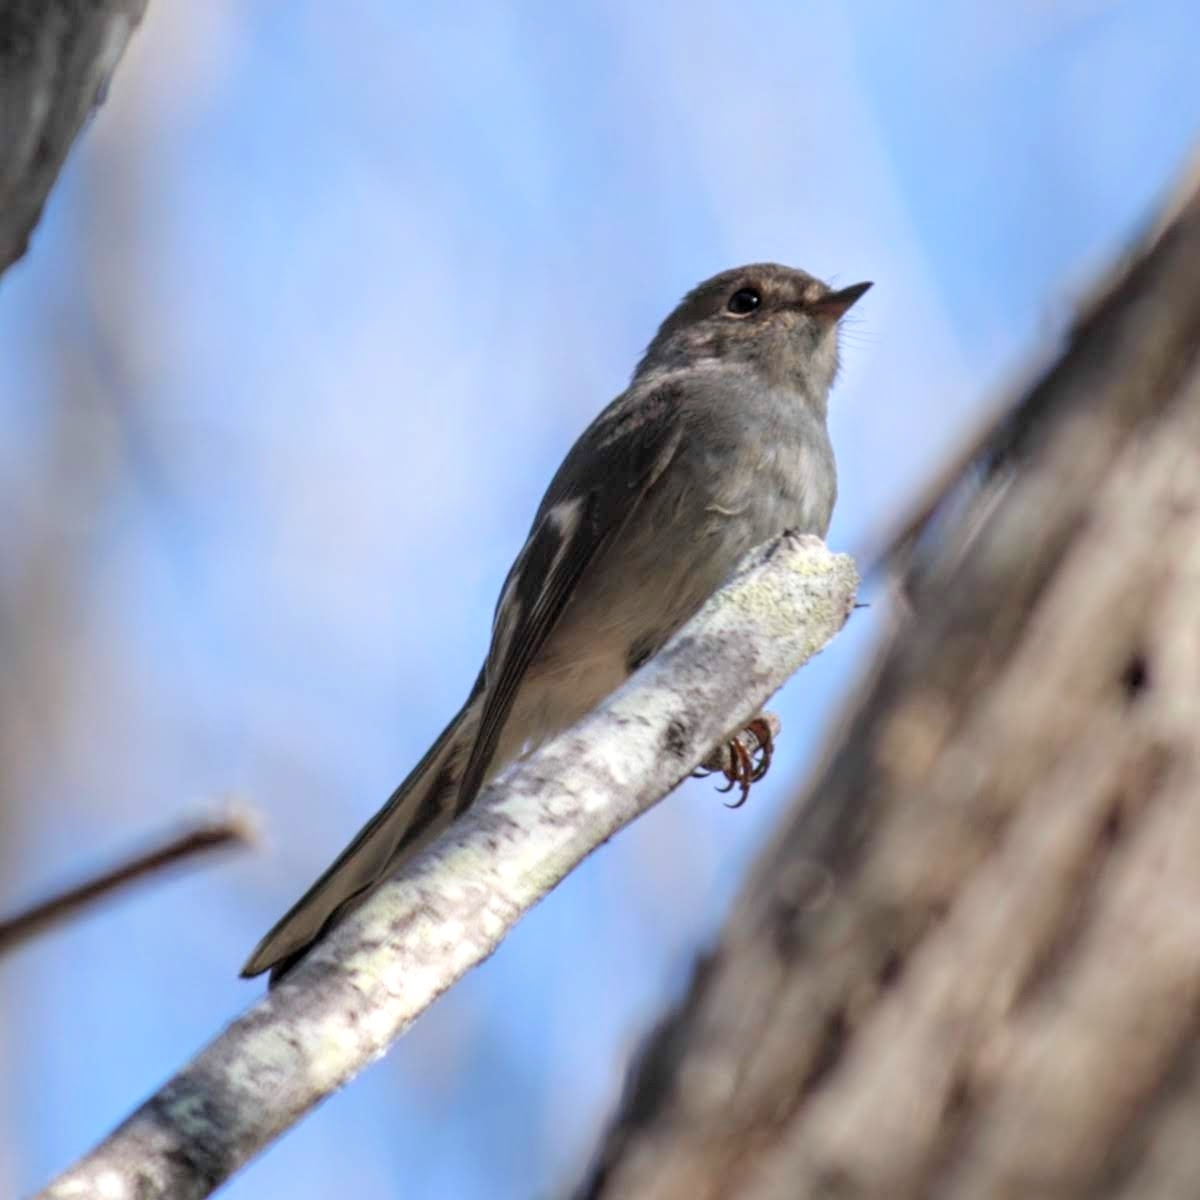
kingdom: Animalia
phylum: Chordata
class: Aves
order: Passeriformes
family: Petroicidae
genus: Petroica
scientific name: Petroica rosea
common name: Rose robin
